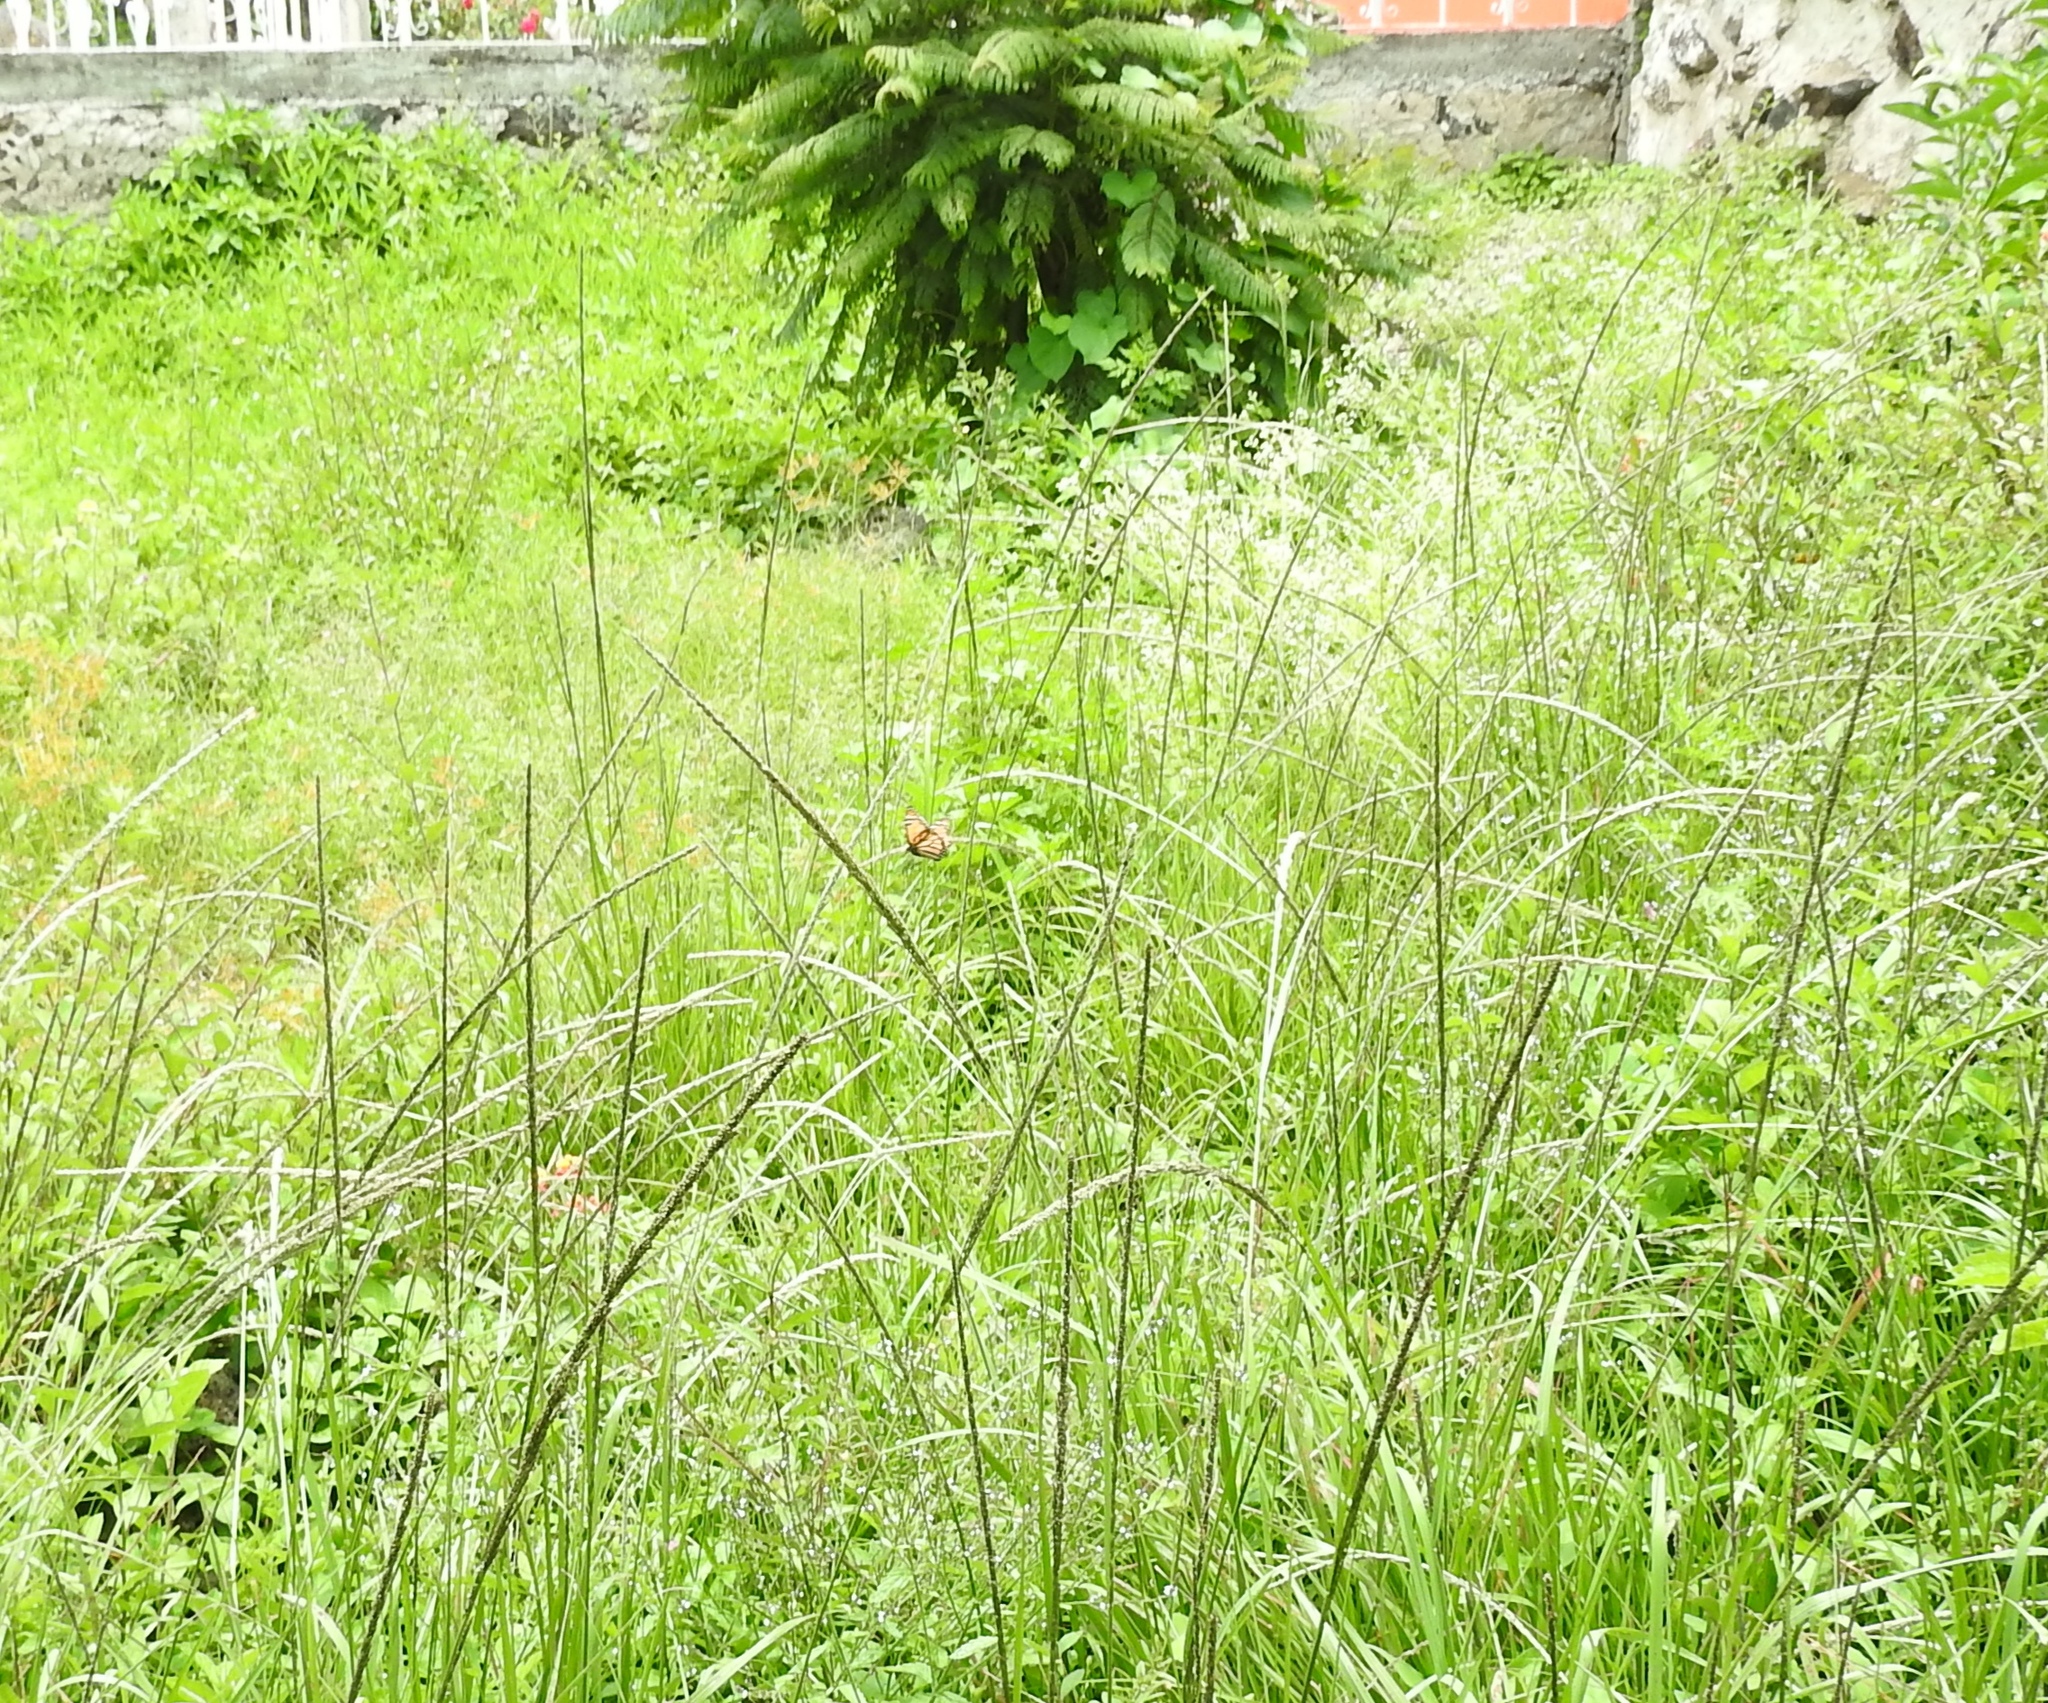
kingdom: Animalia
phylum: Arthropoda
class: Insecta
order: Lepidoptera
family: Nymphalidae
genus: Danaus
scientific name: Danaus plexippus
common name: Monarch
